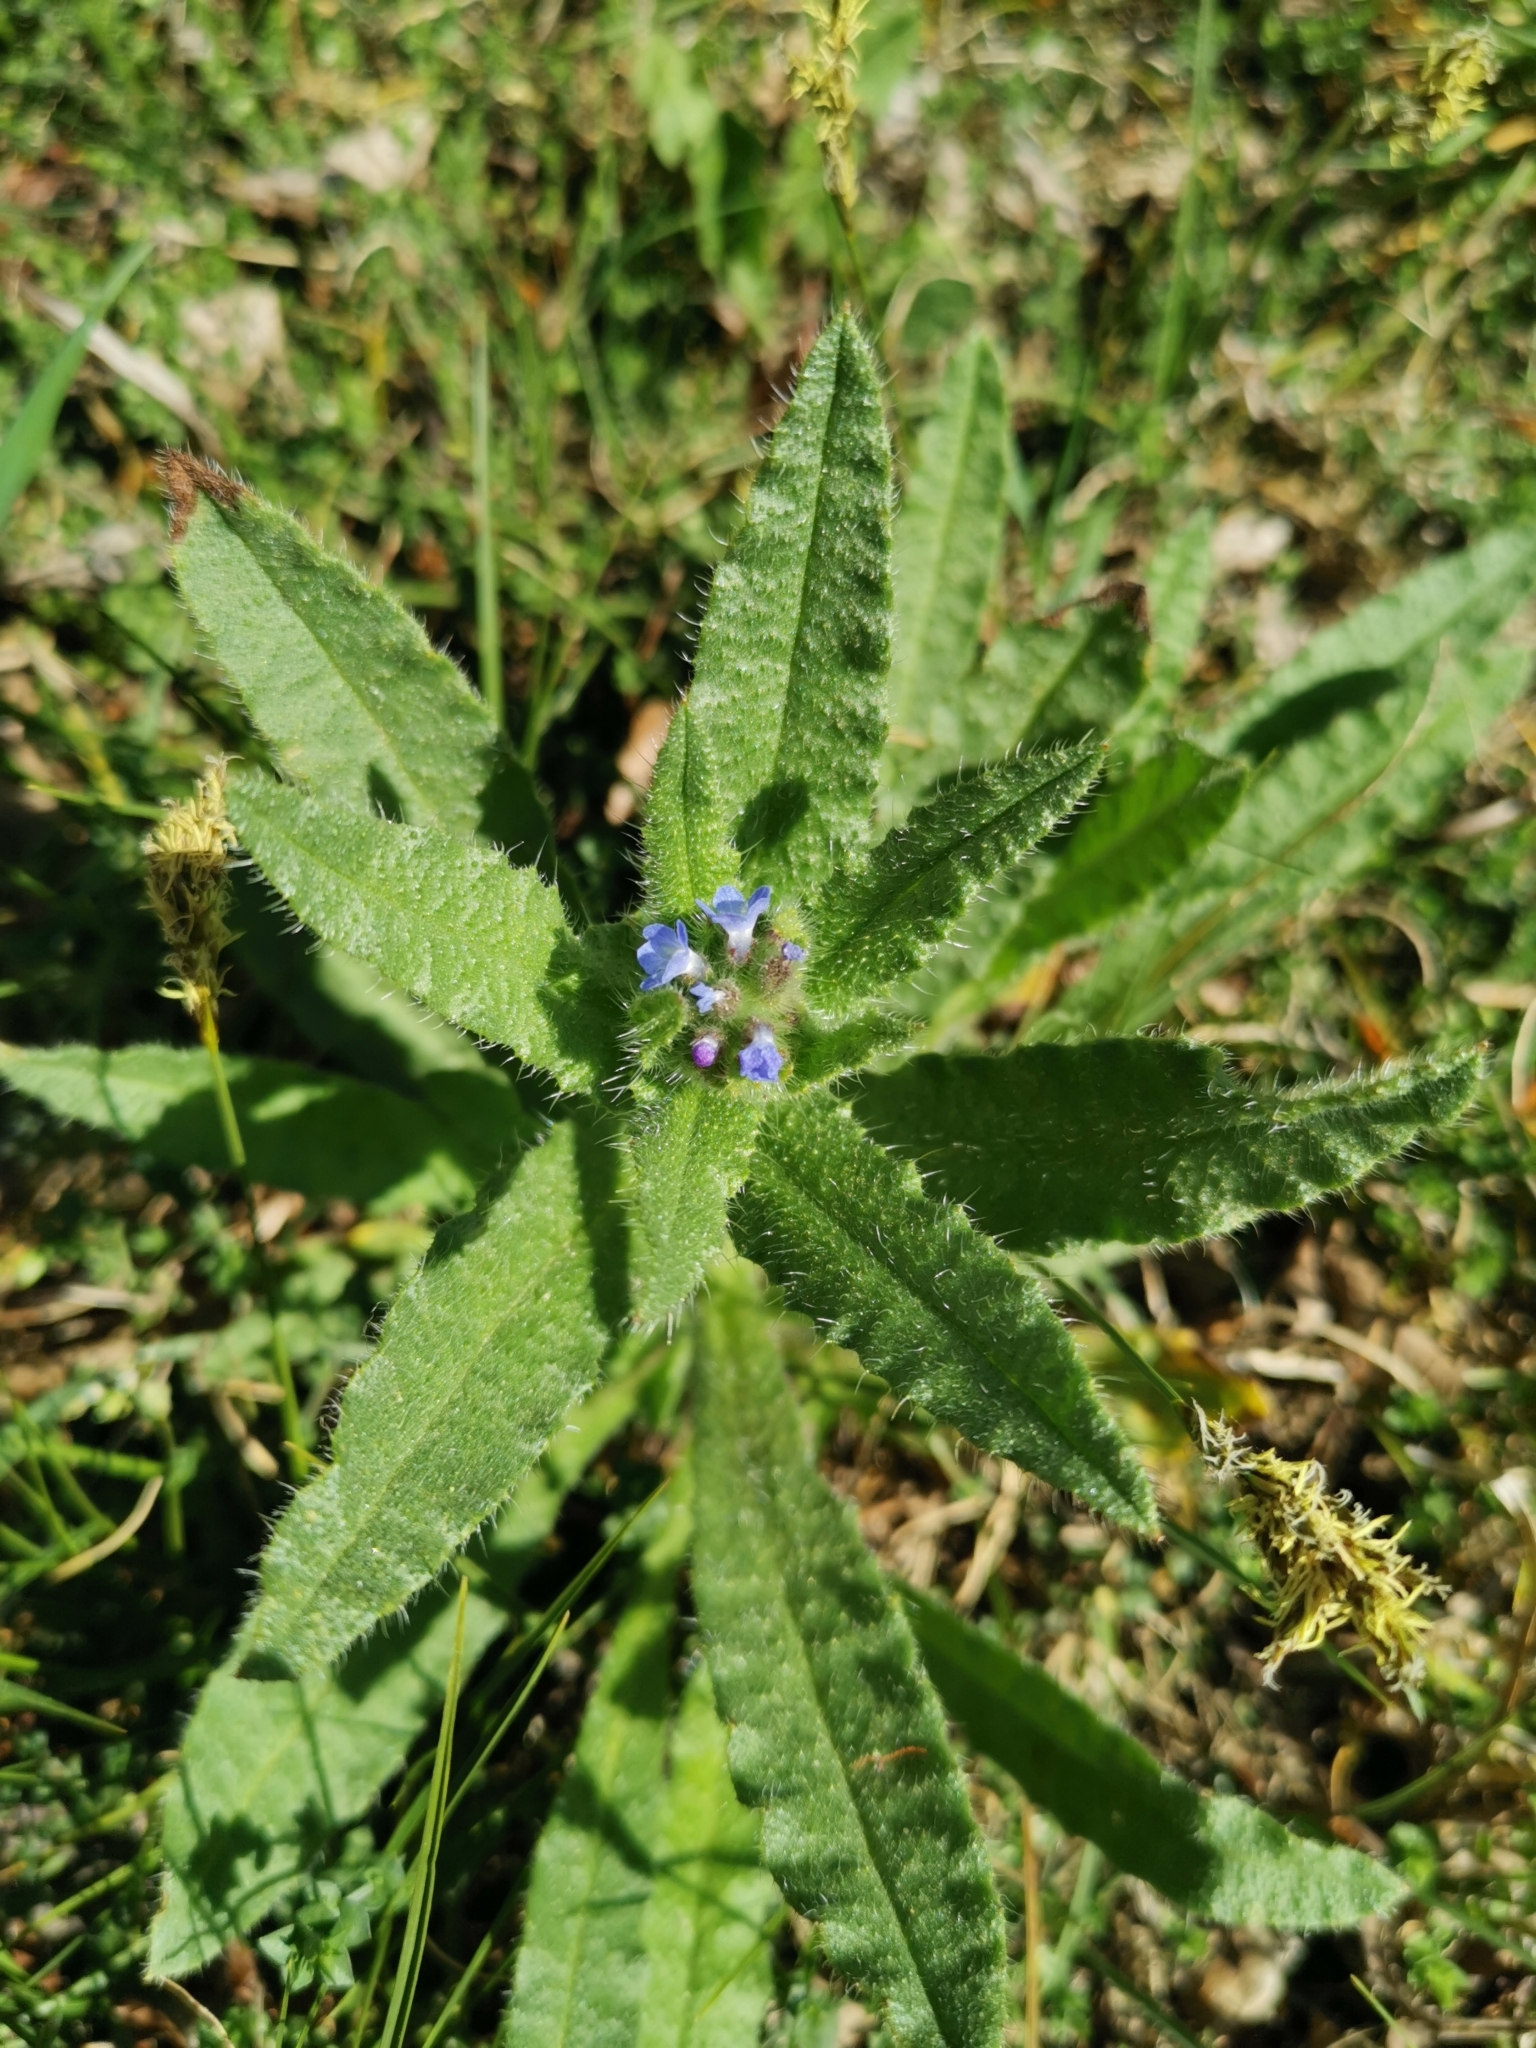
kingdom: Plantae
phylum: Tracheophyta
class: Magnoliopsida
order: Boraginales
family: Boraginaceae
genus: Lycopsis
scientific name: Lycopsis arvensis
